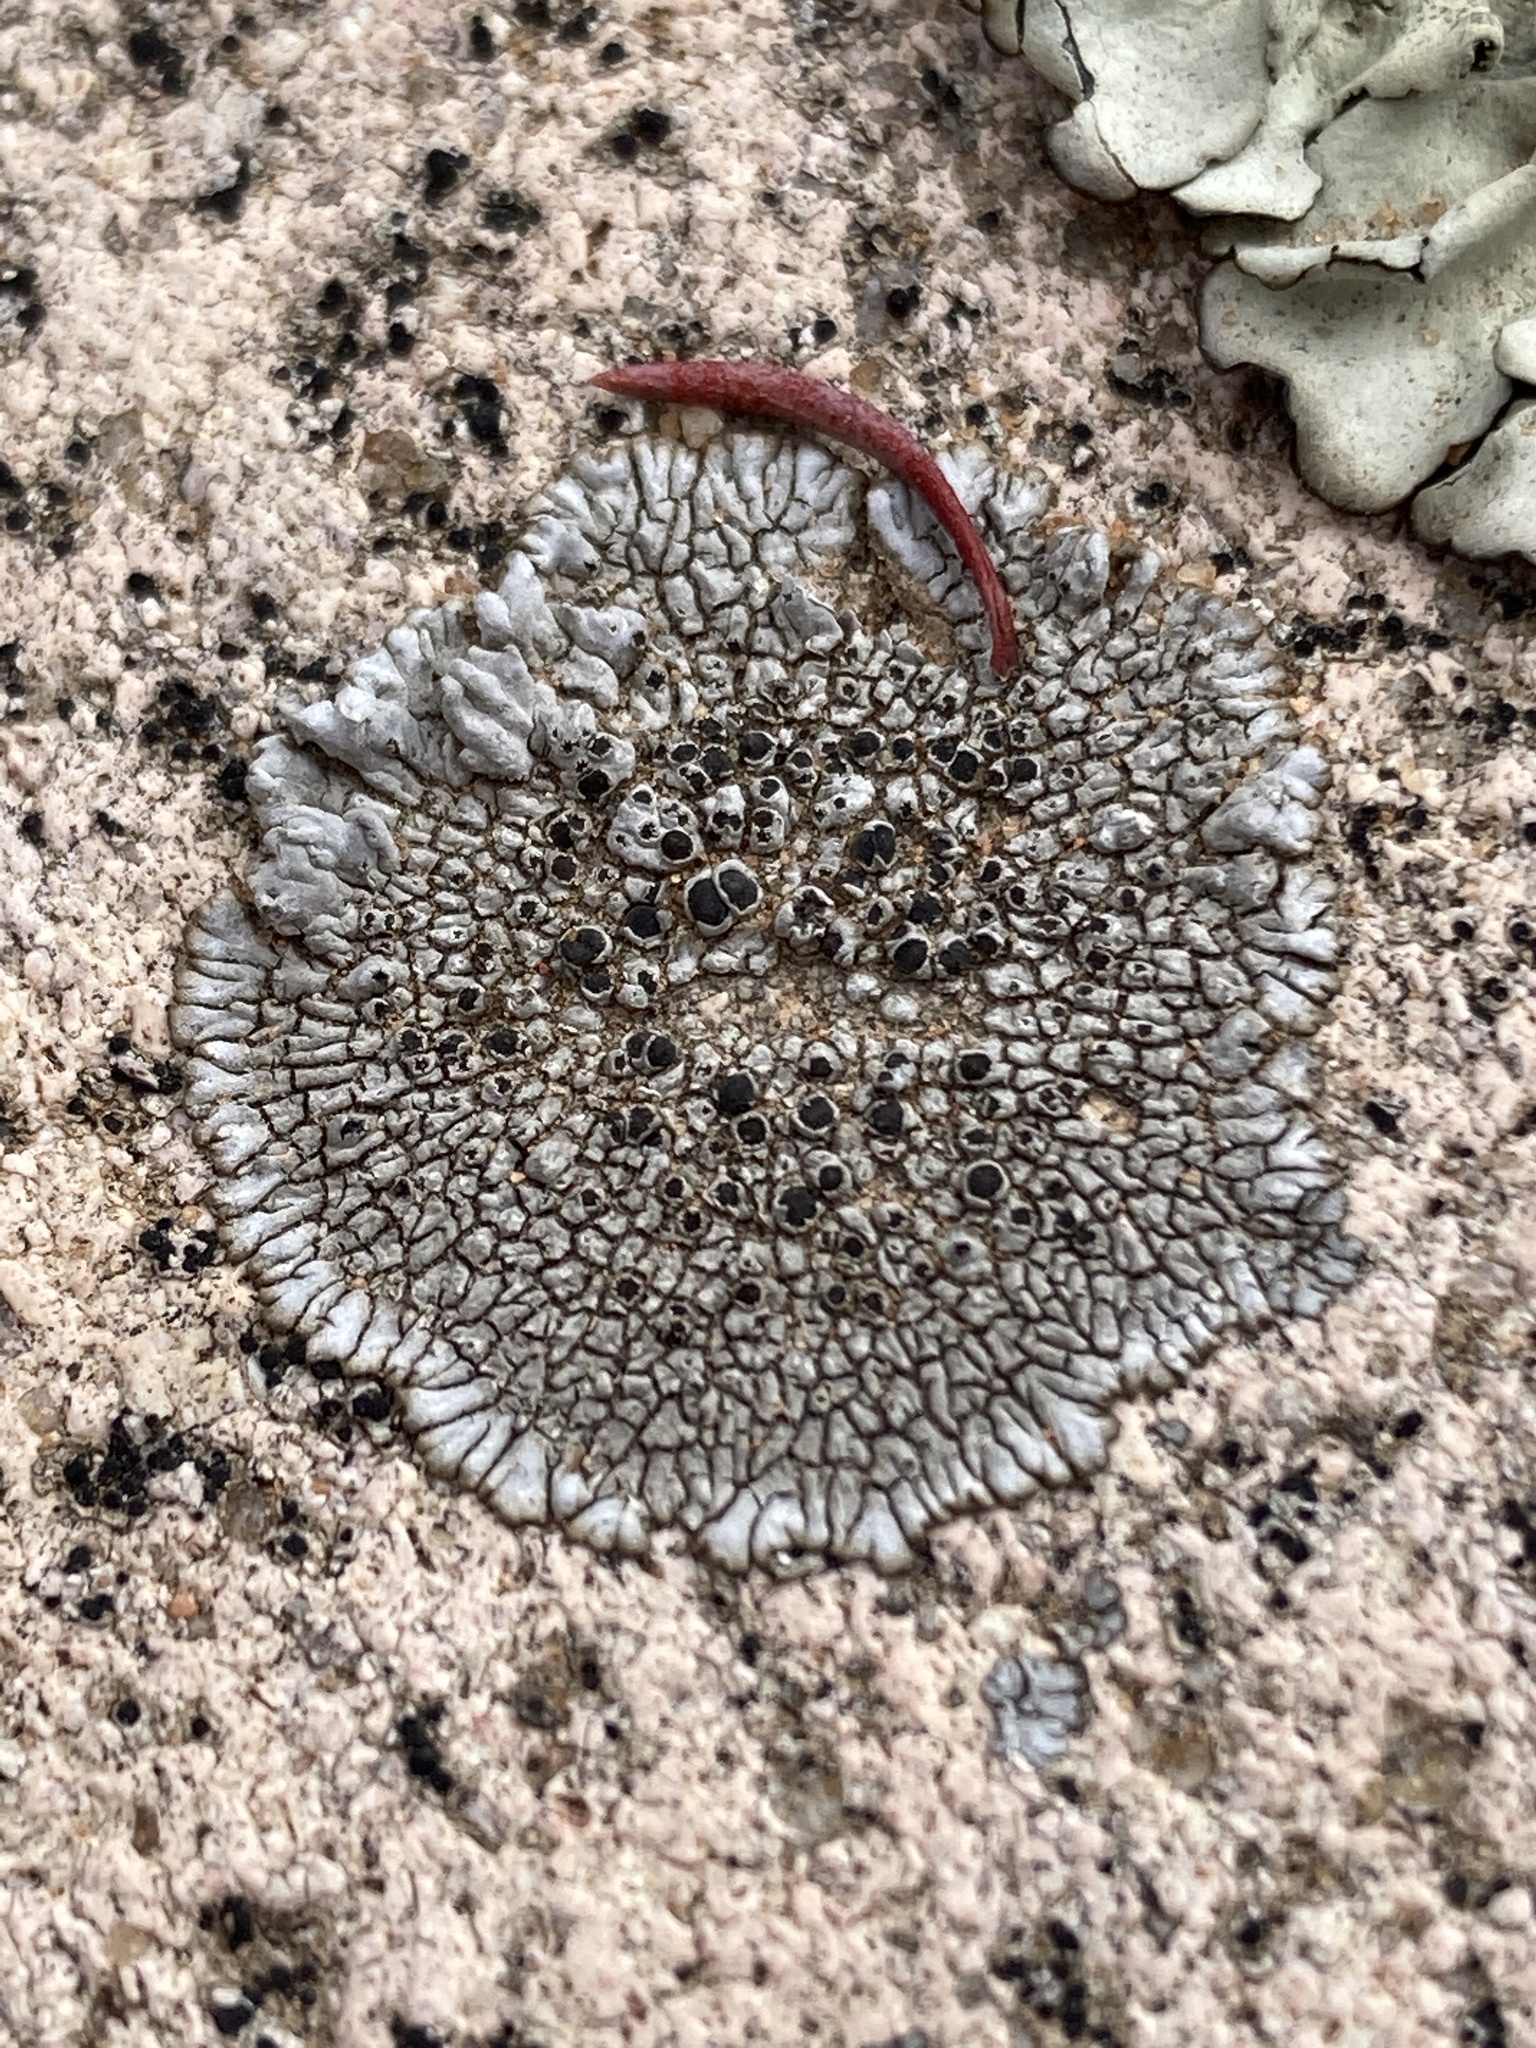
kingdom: Fungi
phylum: Ascomycota
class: Lecanoromycetes
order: Caliciales
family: Caliciaceae
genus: Dimelaena
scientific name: Dimelaena radiata
